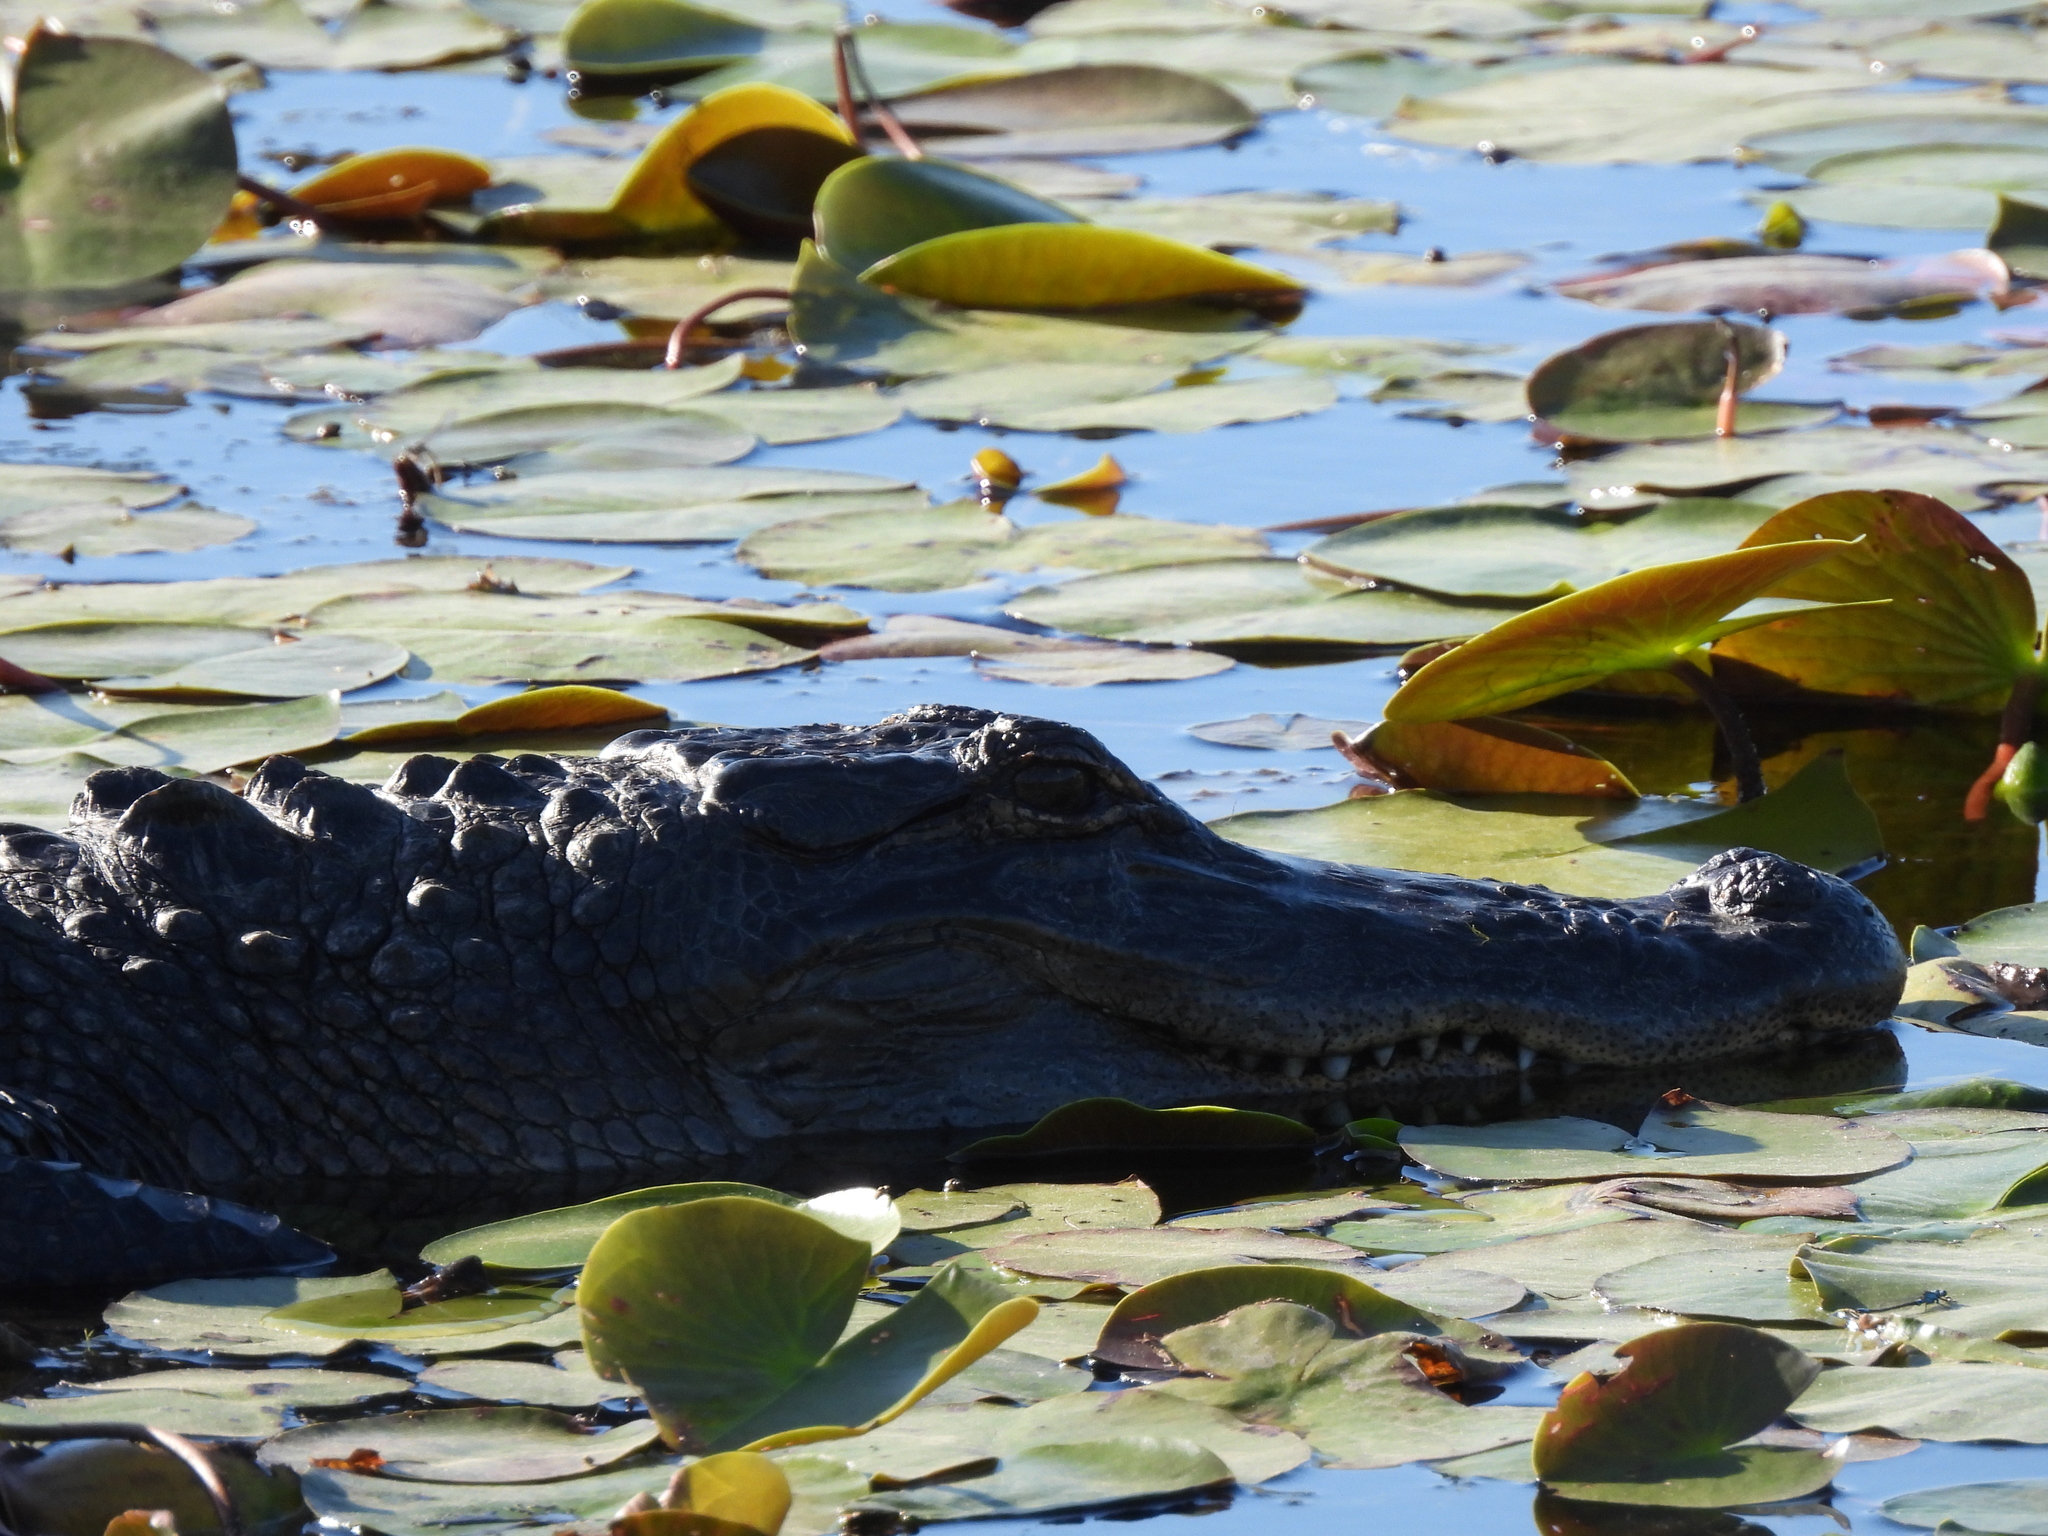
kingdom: Animalia
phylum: Chordata
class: Crocodylia
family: Alligatoridae
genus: Alligator
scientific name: Alligator mississippiensis
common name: American alligator
